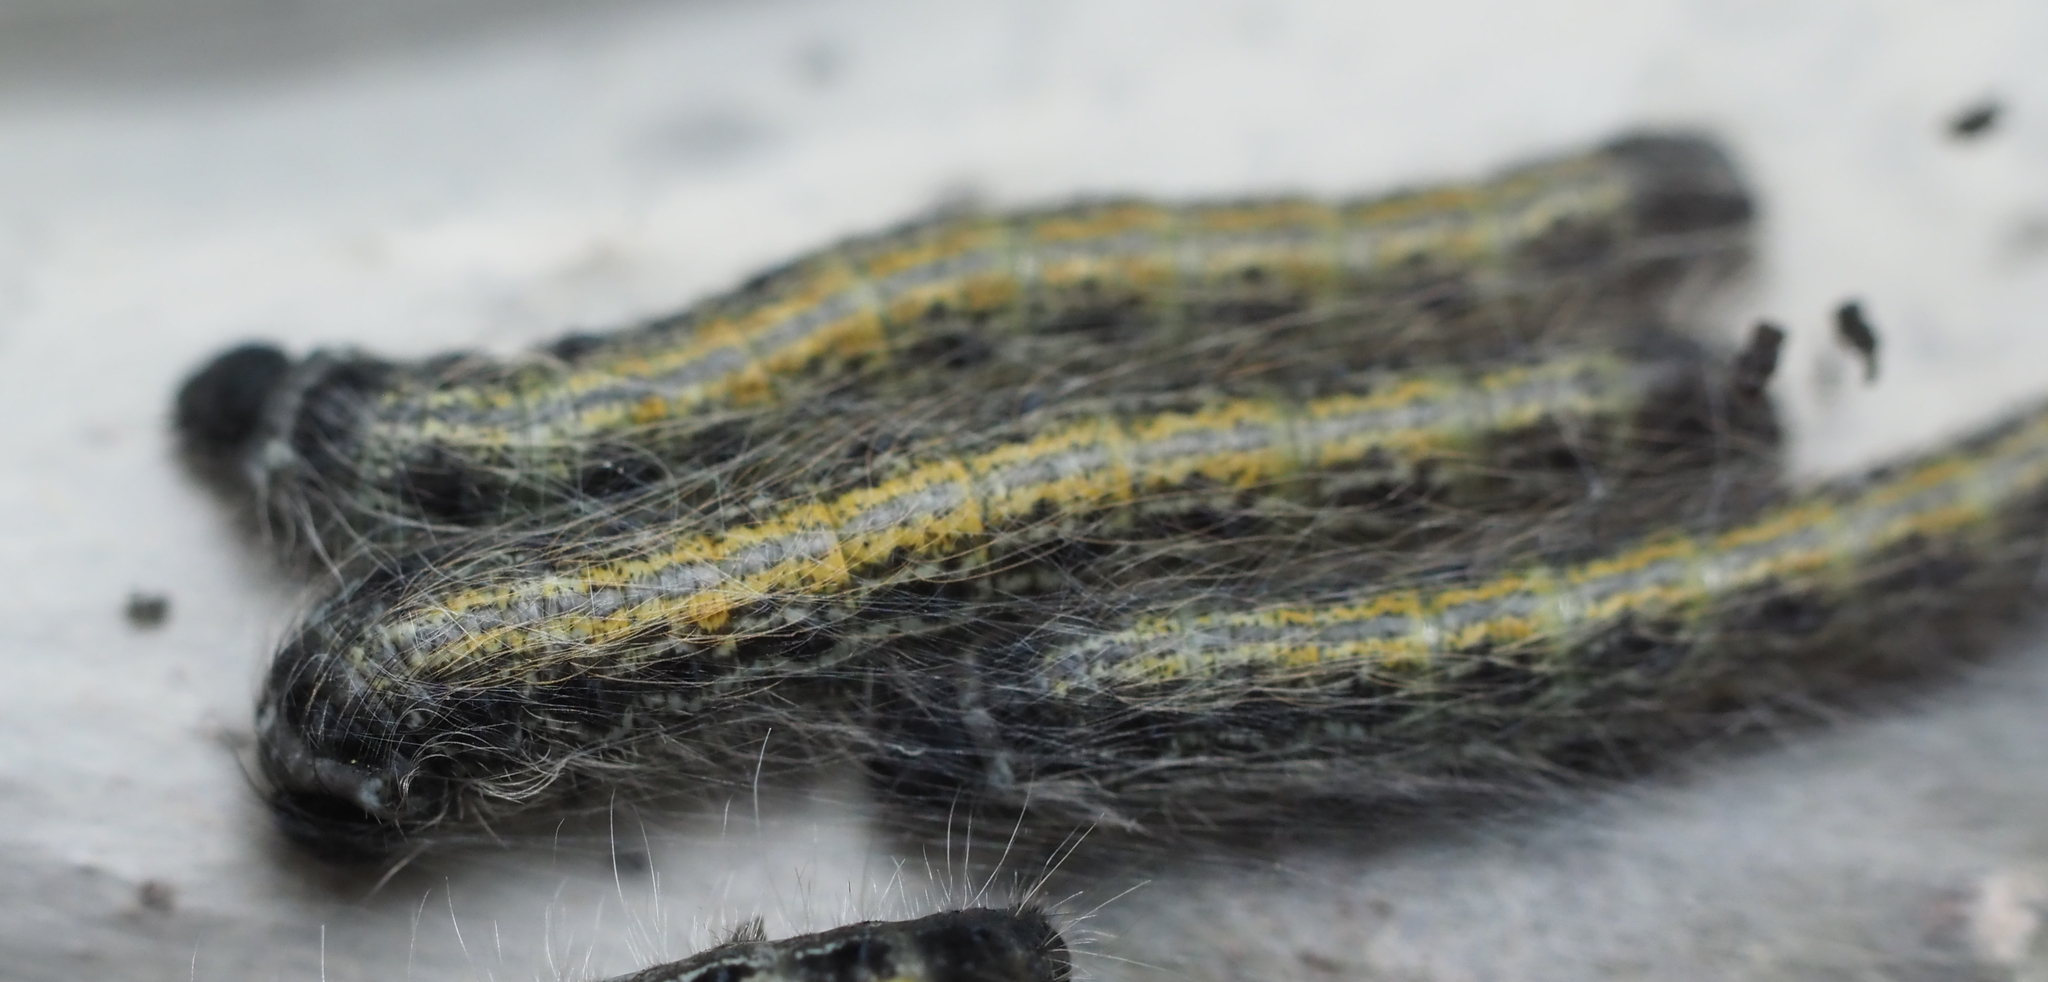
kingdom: Animalia
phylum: Arthropoda
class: Insecta
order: Lepidoptera
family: Lasiocampidae
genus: Malacosoma
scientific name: Malacosoma americana
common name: Eastern tent caterpillar moth
